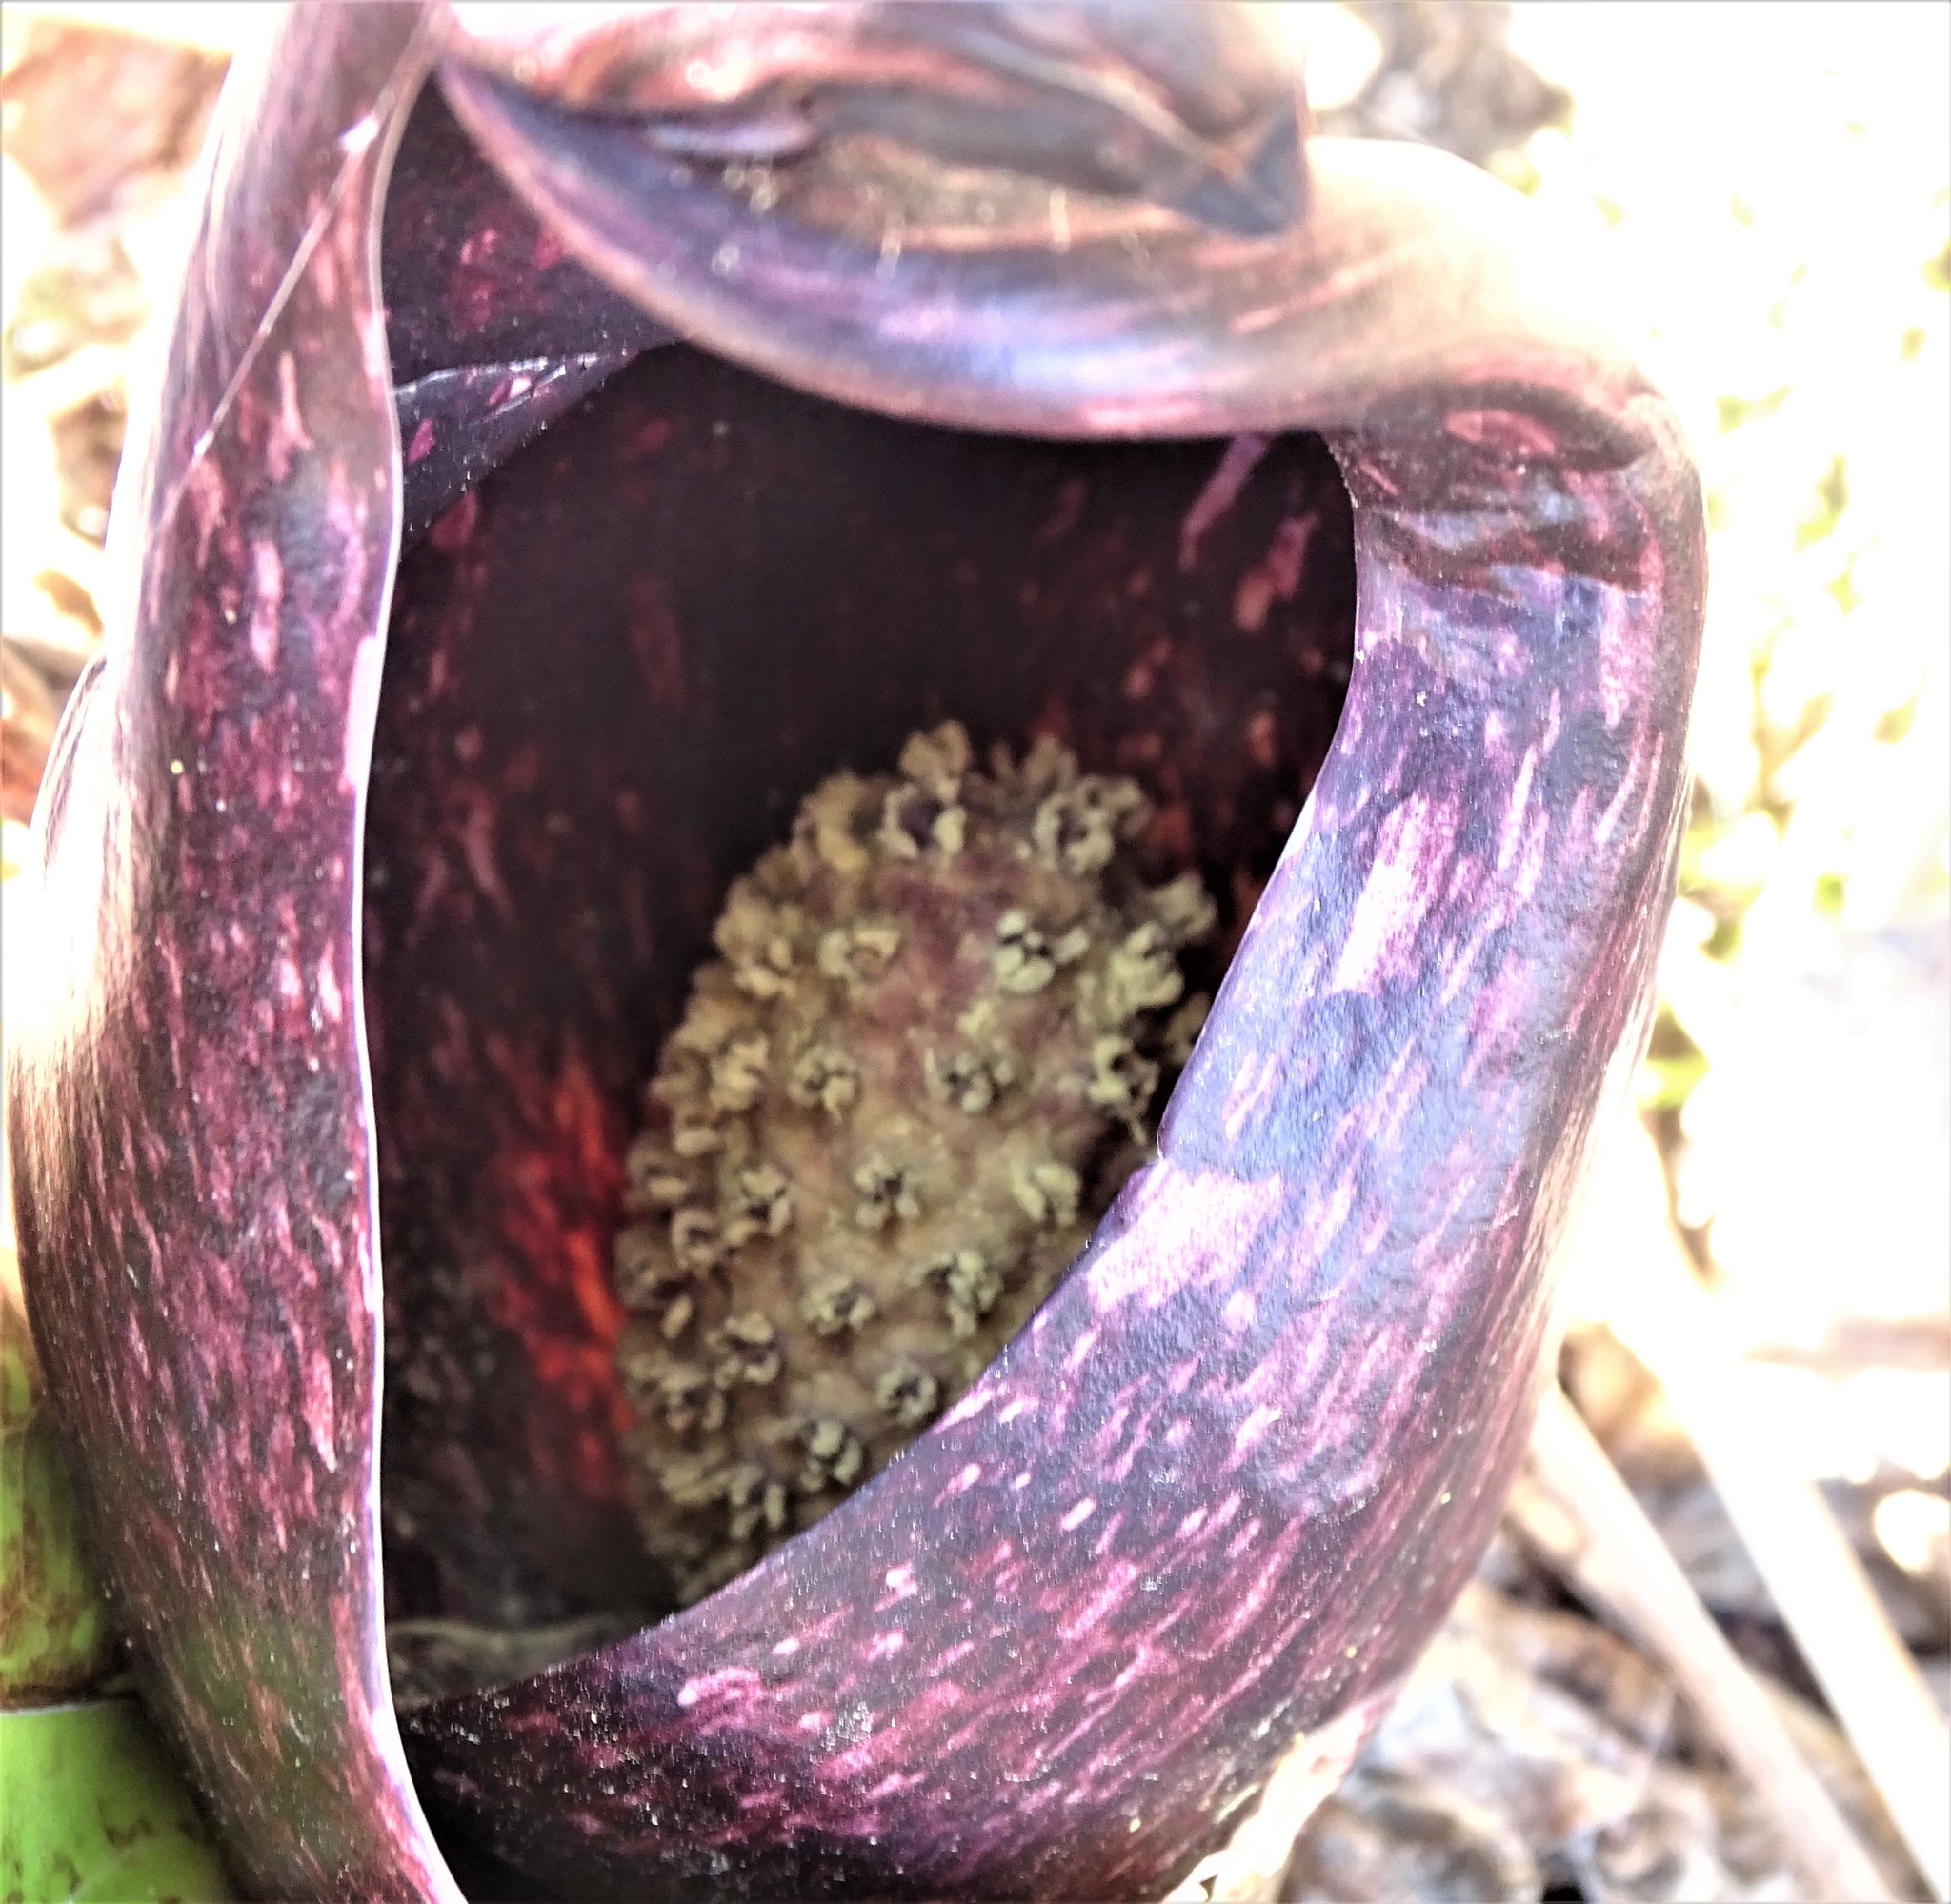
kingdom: Plantae
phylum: Tracheophyta
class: Liliopsida
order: Alismatales
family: Araceae
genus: Symplocarpus
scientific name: Symplocarpus foetidus
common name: Eastern skunk cabbage
